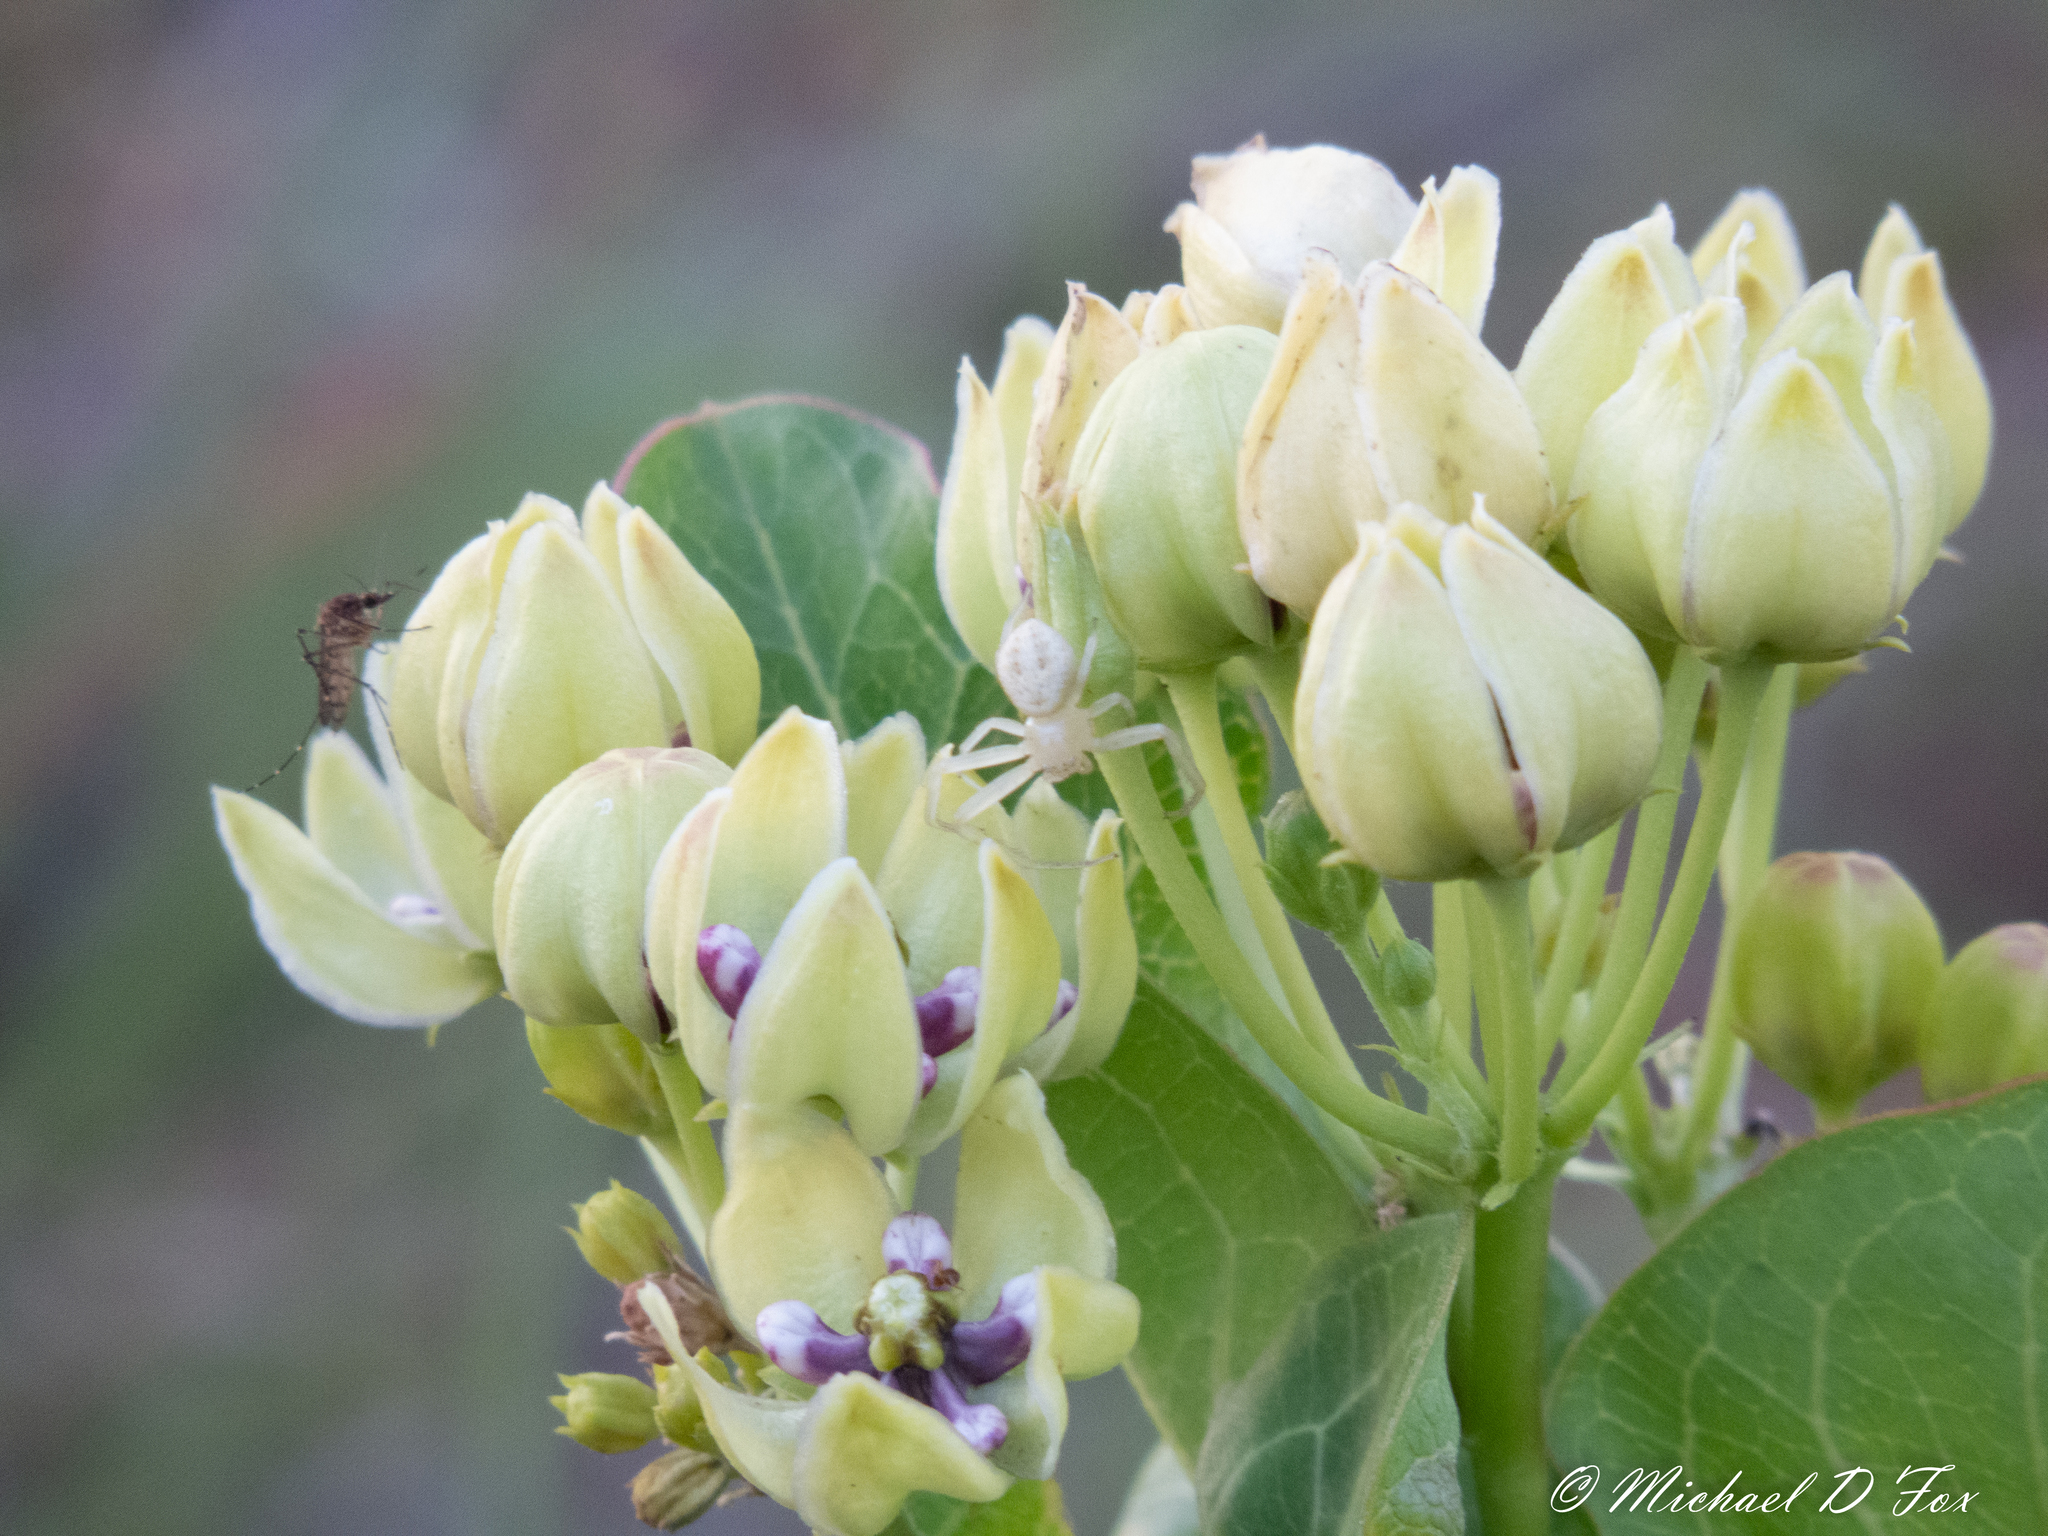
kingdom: Plantae
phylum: Tracheophyta
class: Magnoliopsida
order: Gentianales
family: Apocynaceae
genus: Asclepias
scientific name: Asclepias viridis
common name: Antelope-horns
